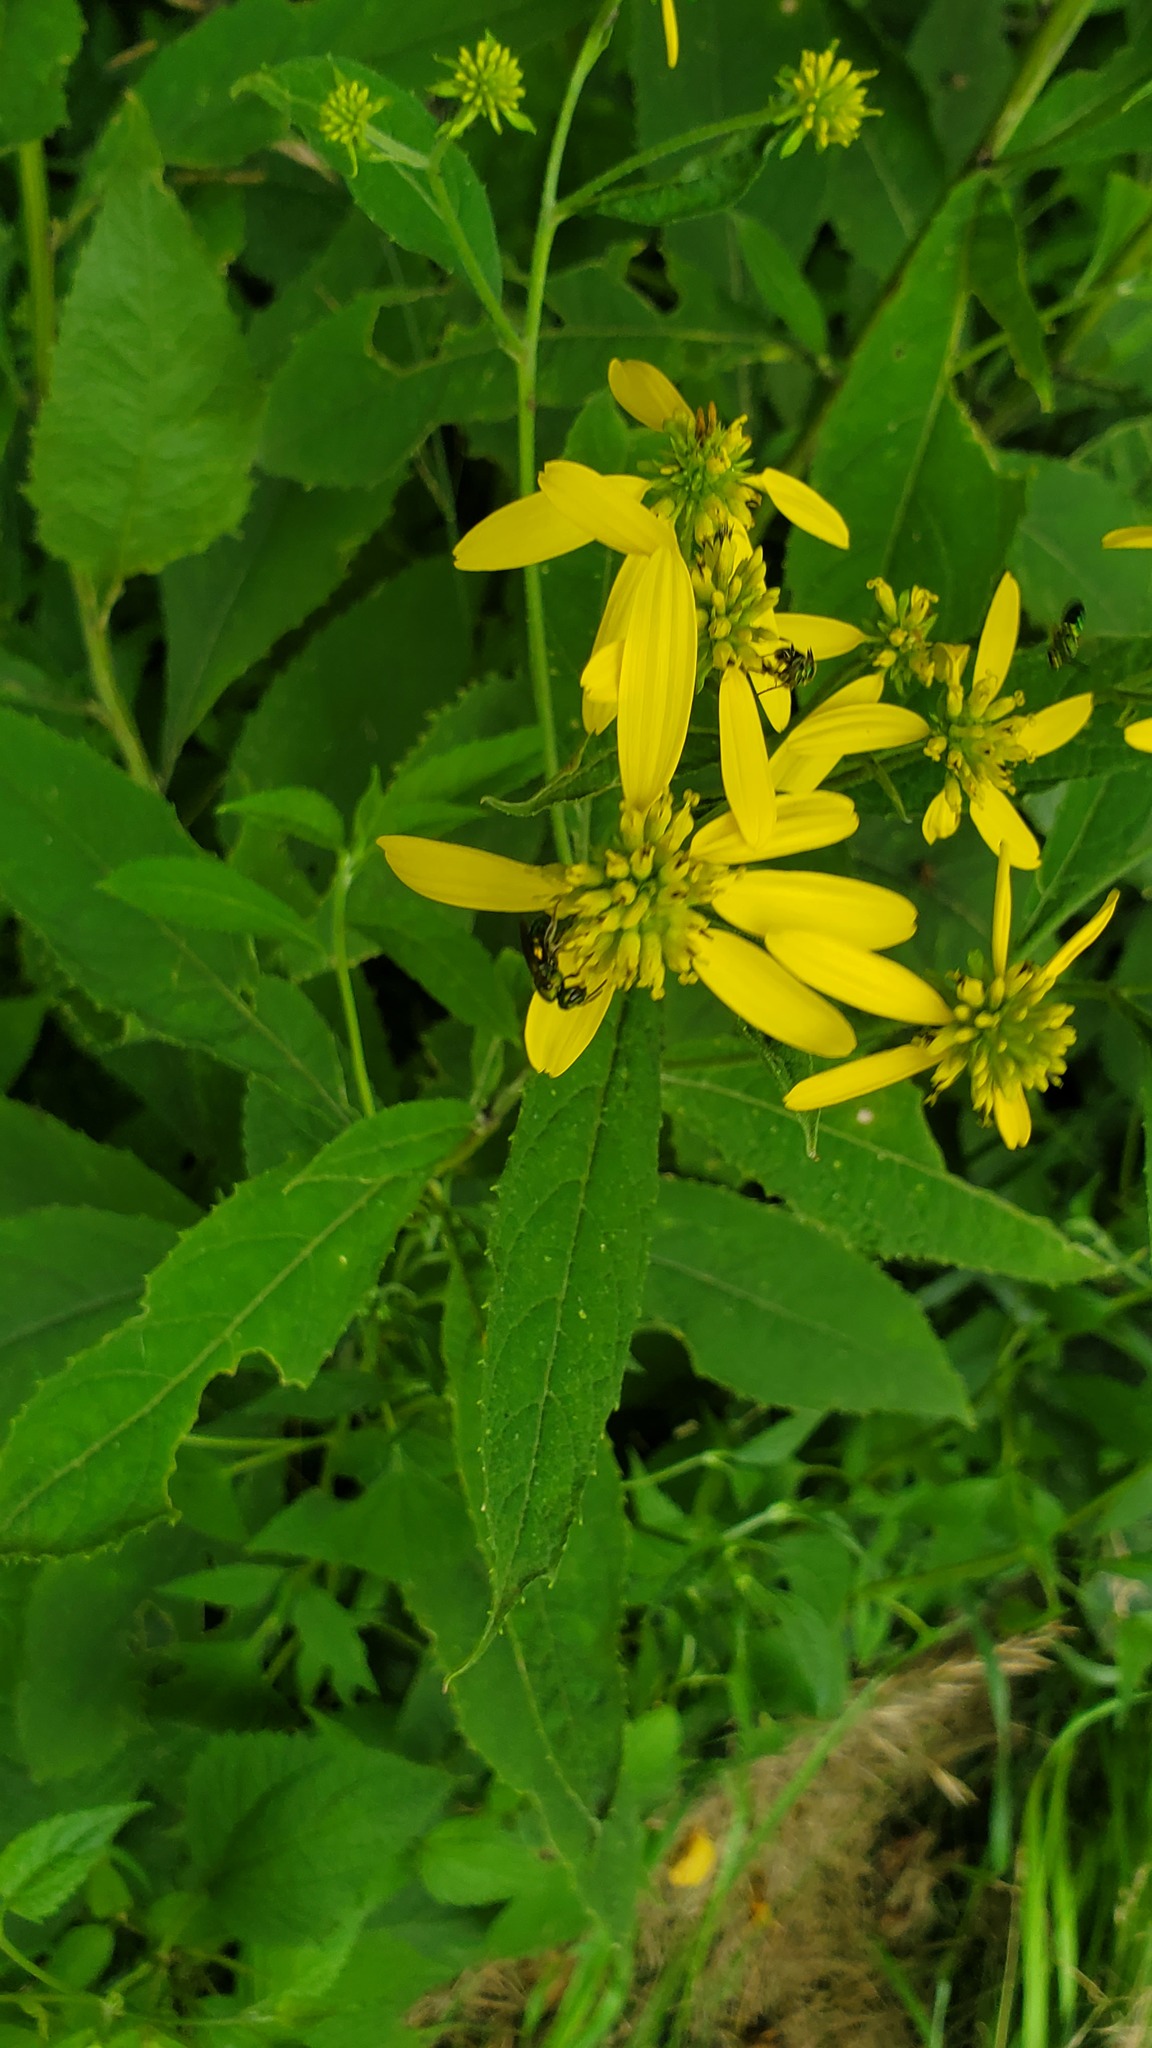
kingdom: Plantae
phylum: Tracheophyta
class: Magnoliopsida
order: Asterales
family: Asteraceae
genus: Verbesina
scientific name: Verbesina alternifolia
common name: Wingstem
